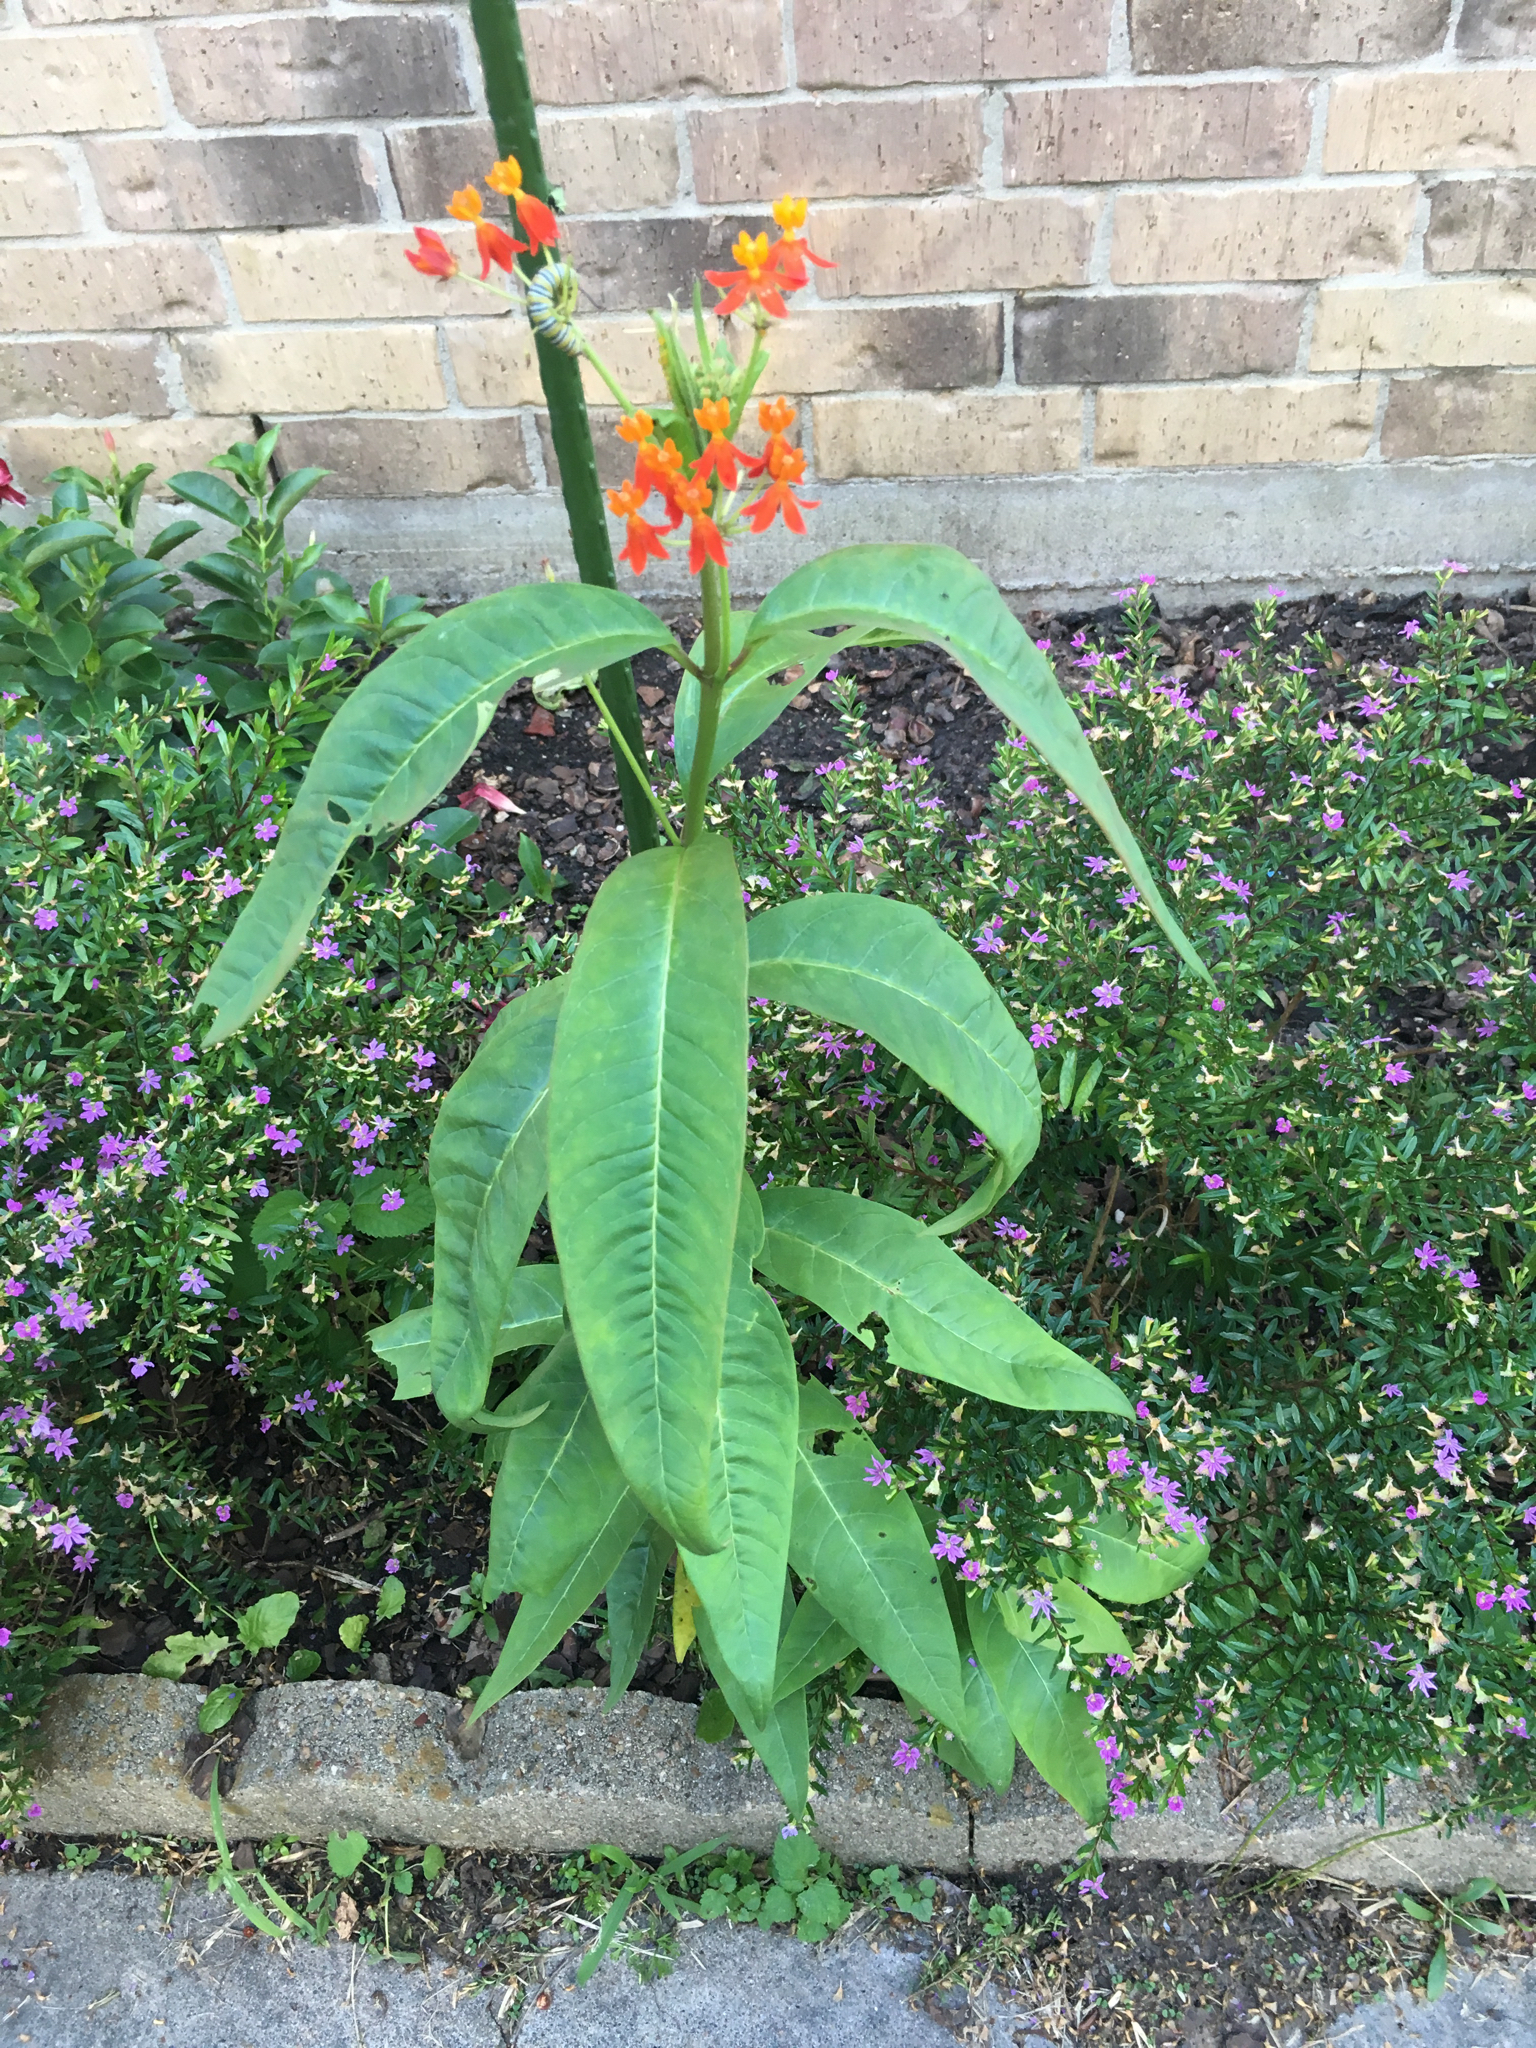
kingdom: Animalia
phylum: Arthropoda
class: Insecta
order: Lepidoptera
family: Nymphalidae
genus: Danaus
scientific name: Danaus plexippus
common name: Monarch
